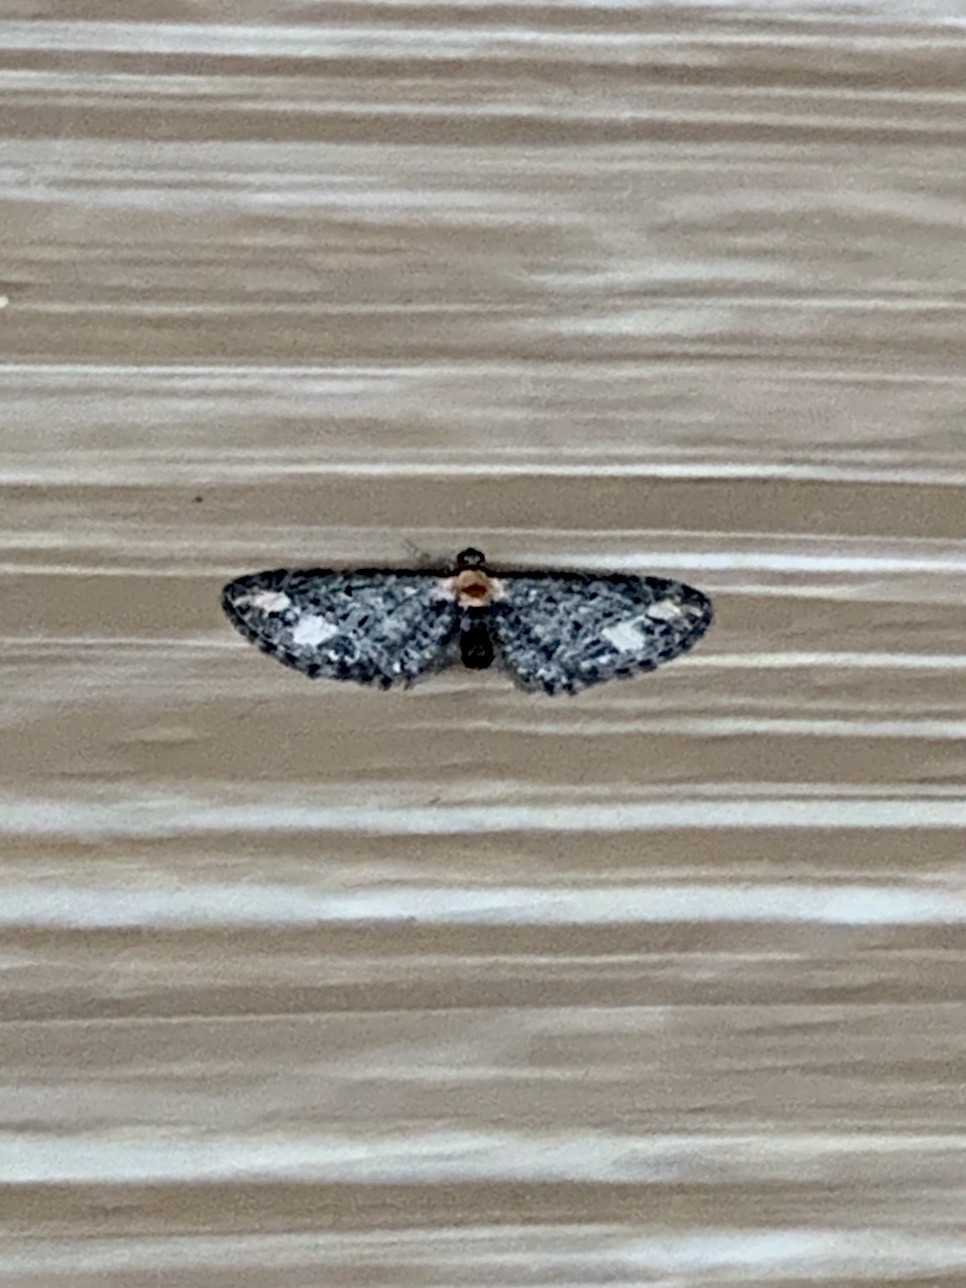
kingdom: Animalia
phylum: Arthropoda
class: Insecta
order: Lepidoptera
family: Geometridae
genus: Eupithecia
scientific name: Eupithecia flavigutta
